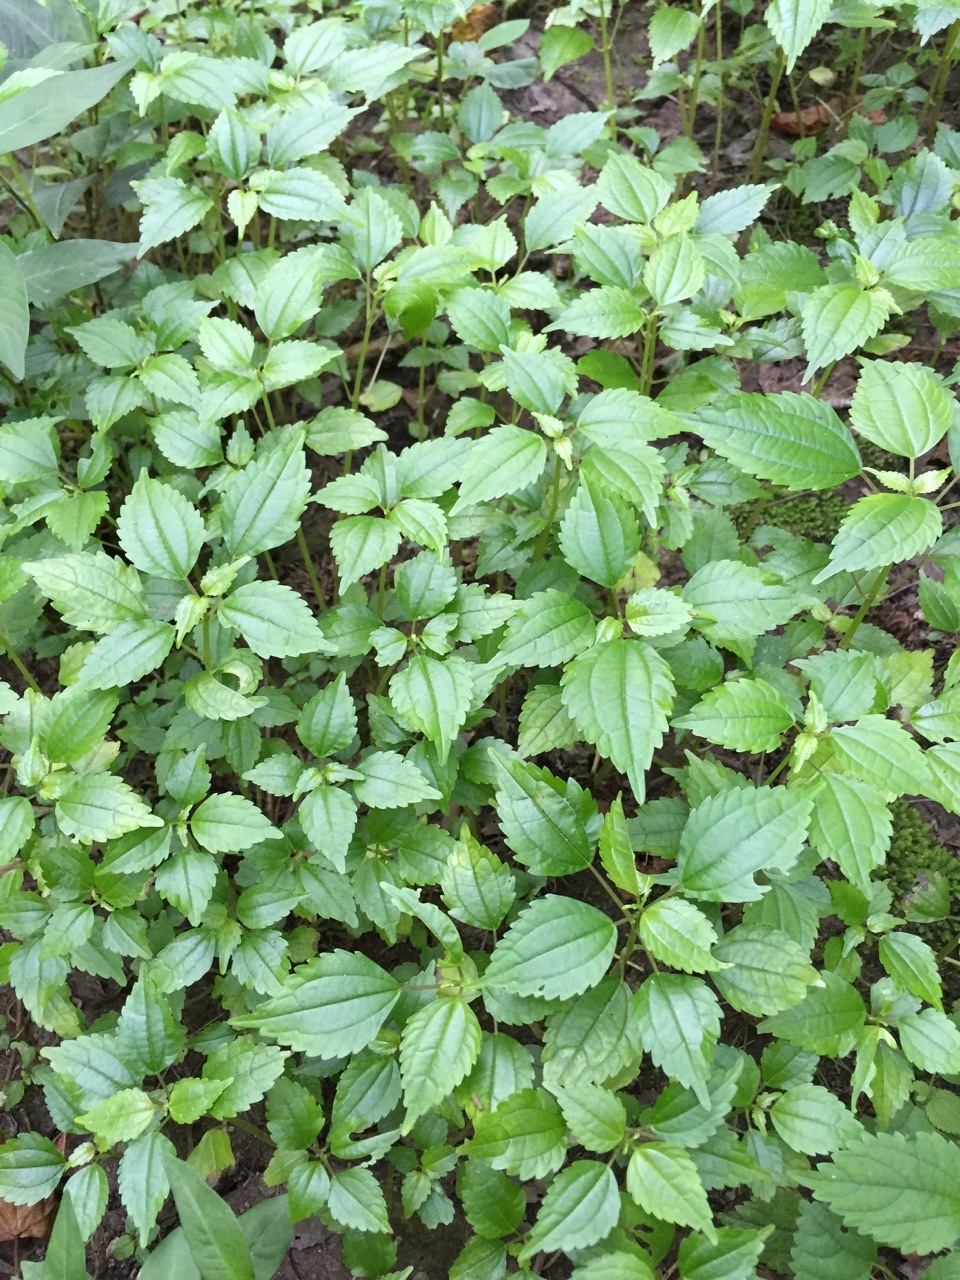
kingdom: Plantae
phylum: Tracheophyta
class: Magnoliopsida
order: Rosales
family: Urticaceae
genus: Pilea
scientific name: Pilea pumila
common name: Clearweed
